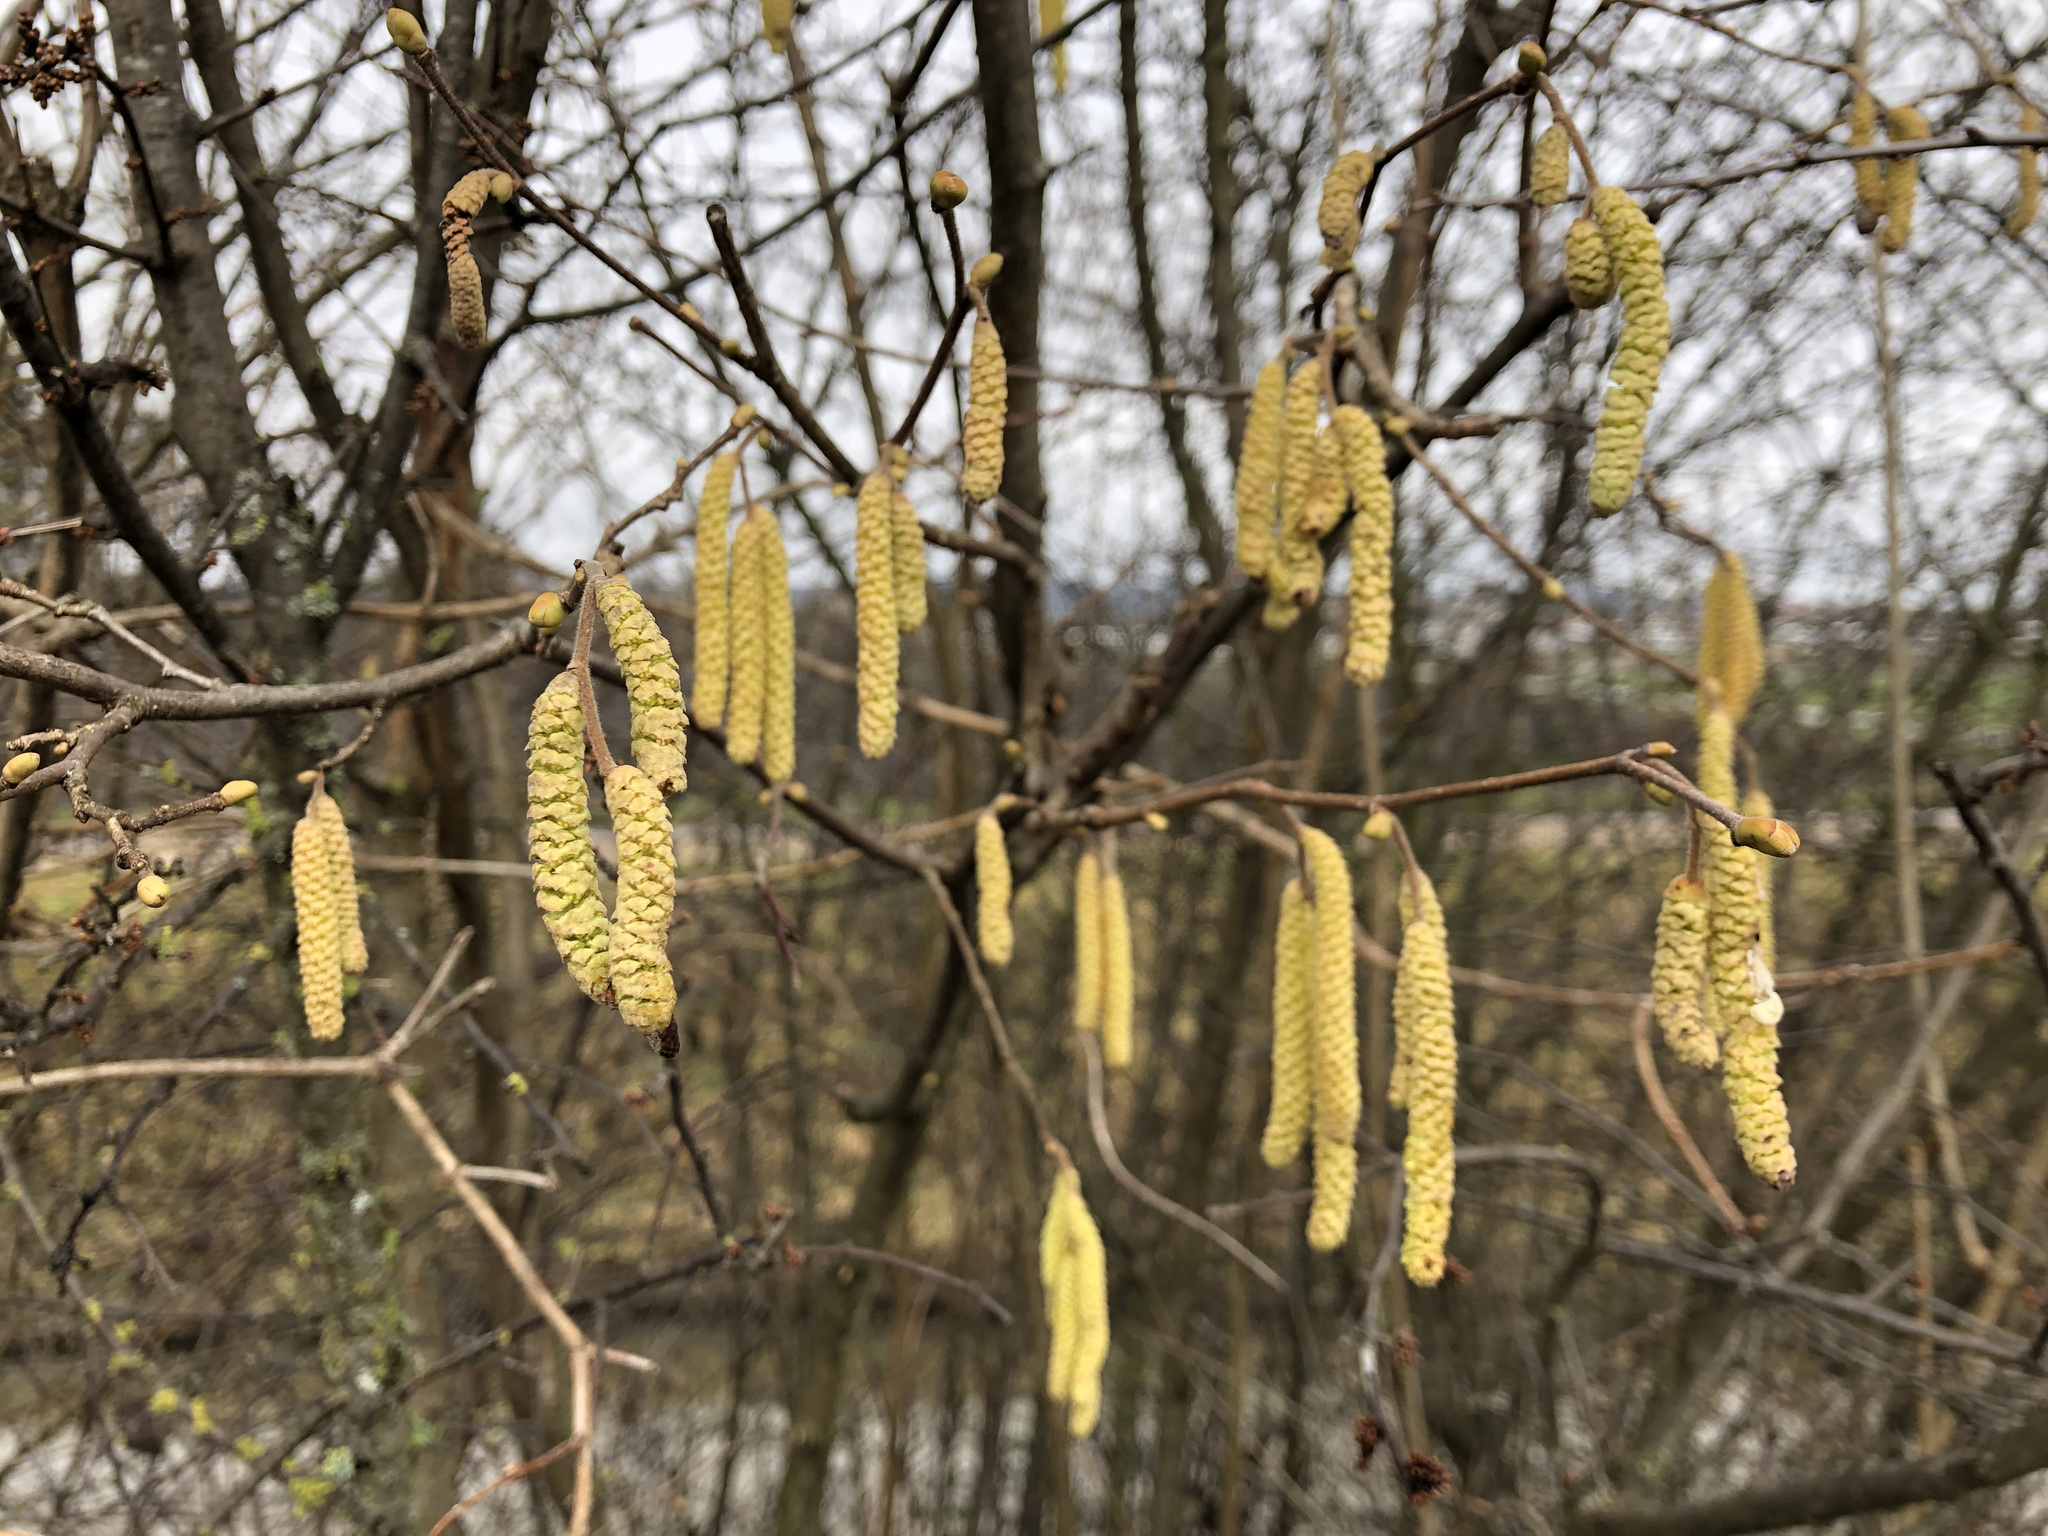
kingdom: Plantae
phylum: Tracheophyta
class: Magnoliopsida
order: Fagales
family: Betulaceae
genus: Corylus
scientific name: Corylus avellana
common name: European hazel
